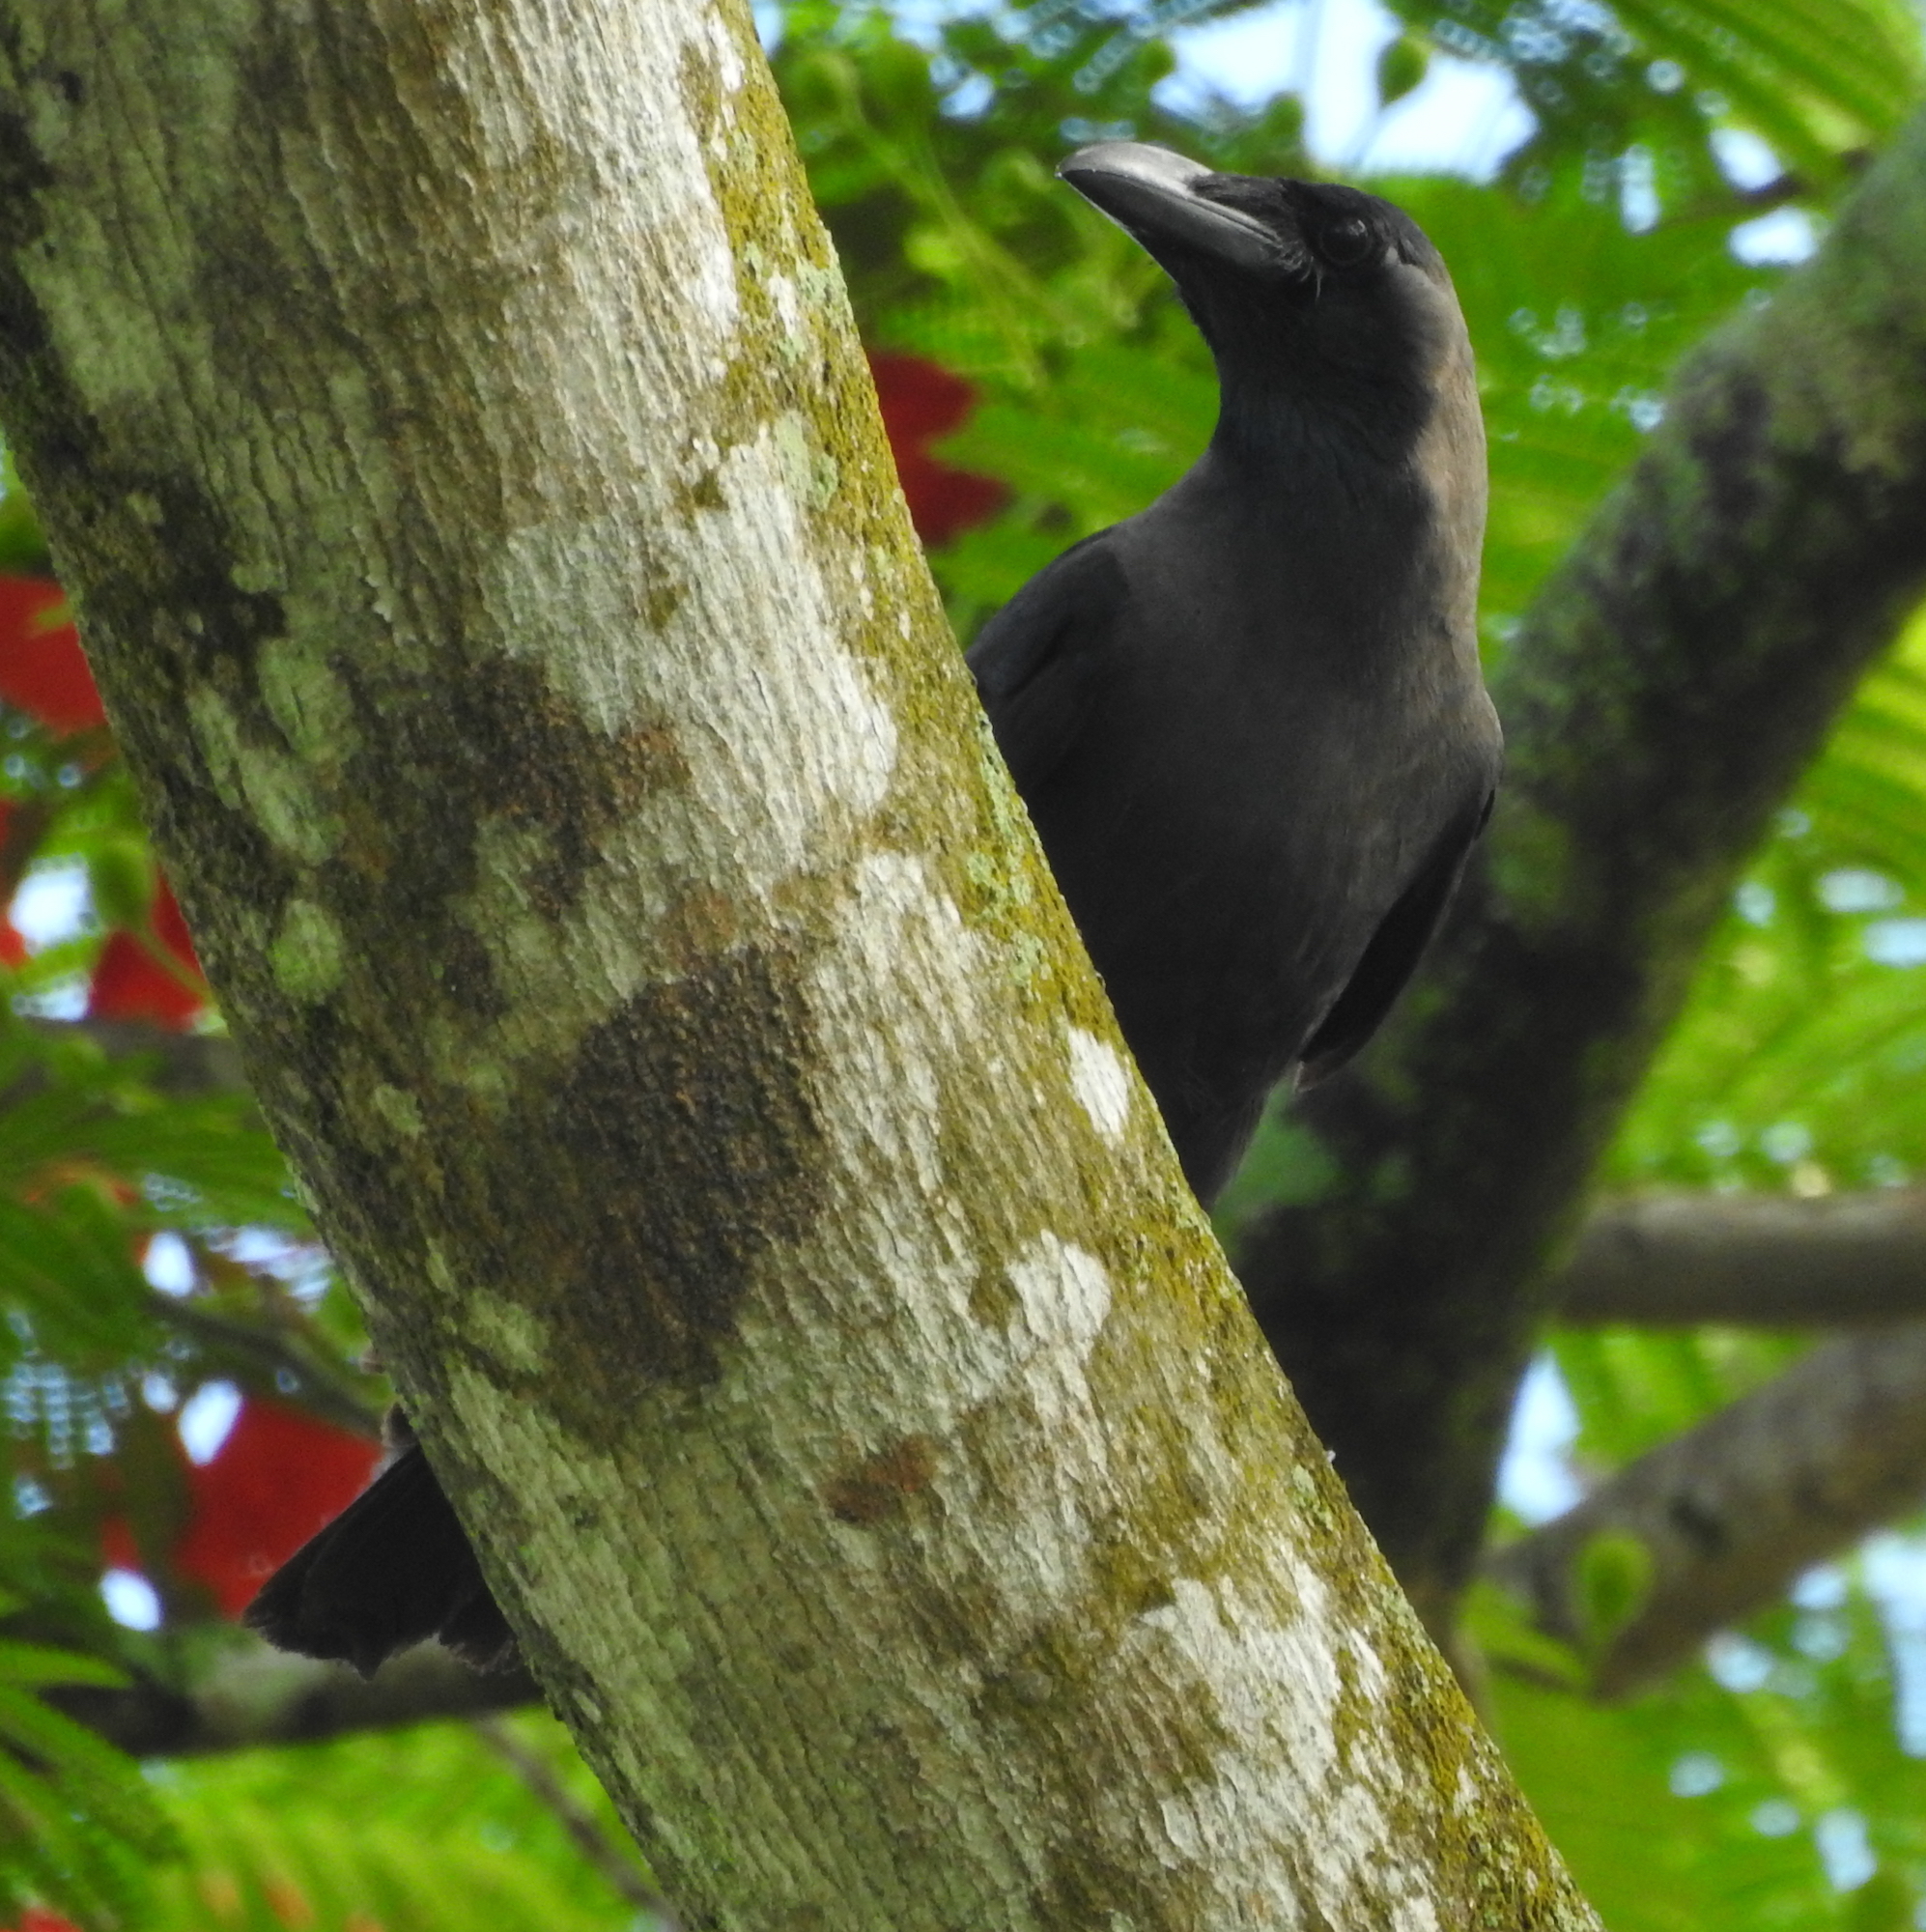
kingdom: Animalia
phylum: Chordata
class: Aves
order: Passeriformes
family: Corvidae
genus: Corvus
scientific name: Corvus splendens
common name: House crow
